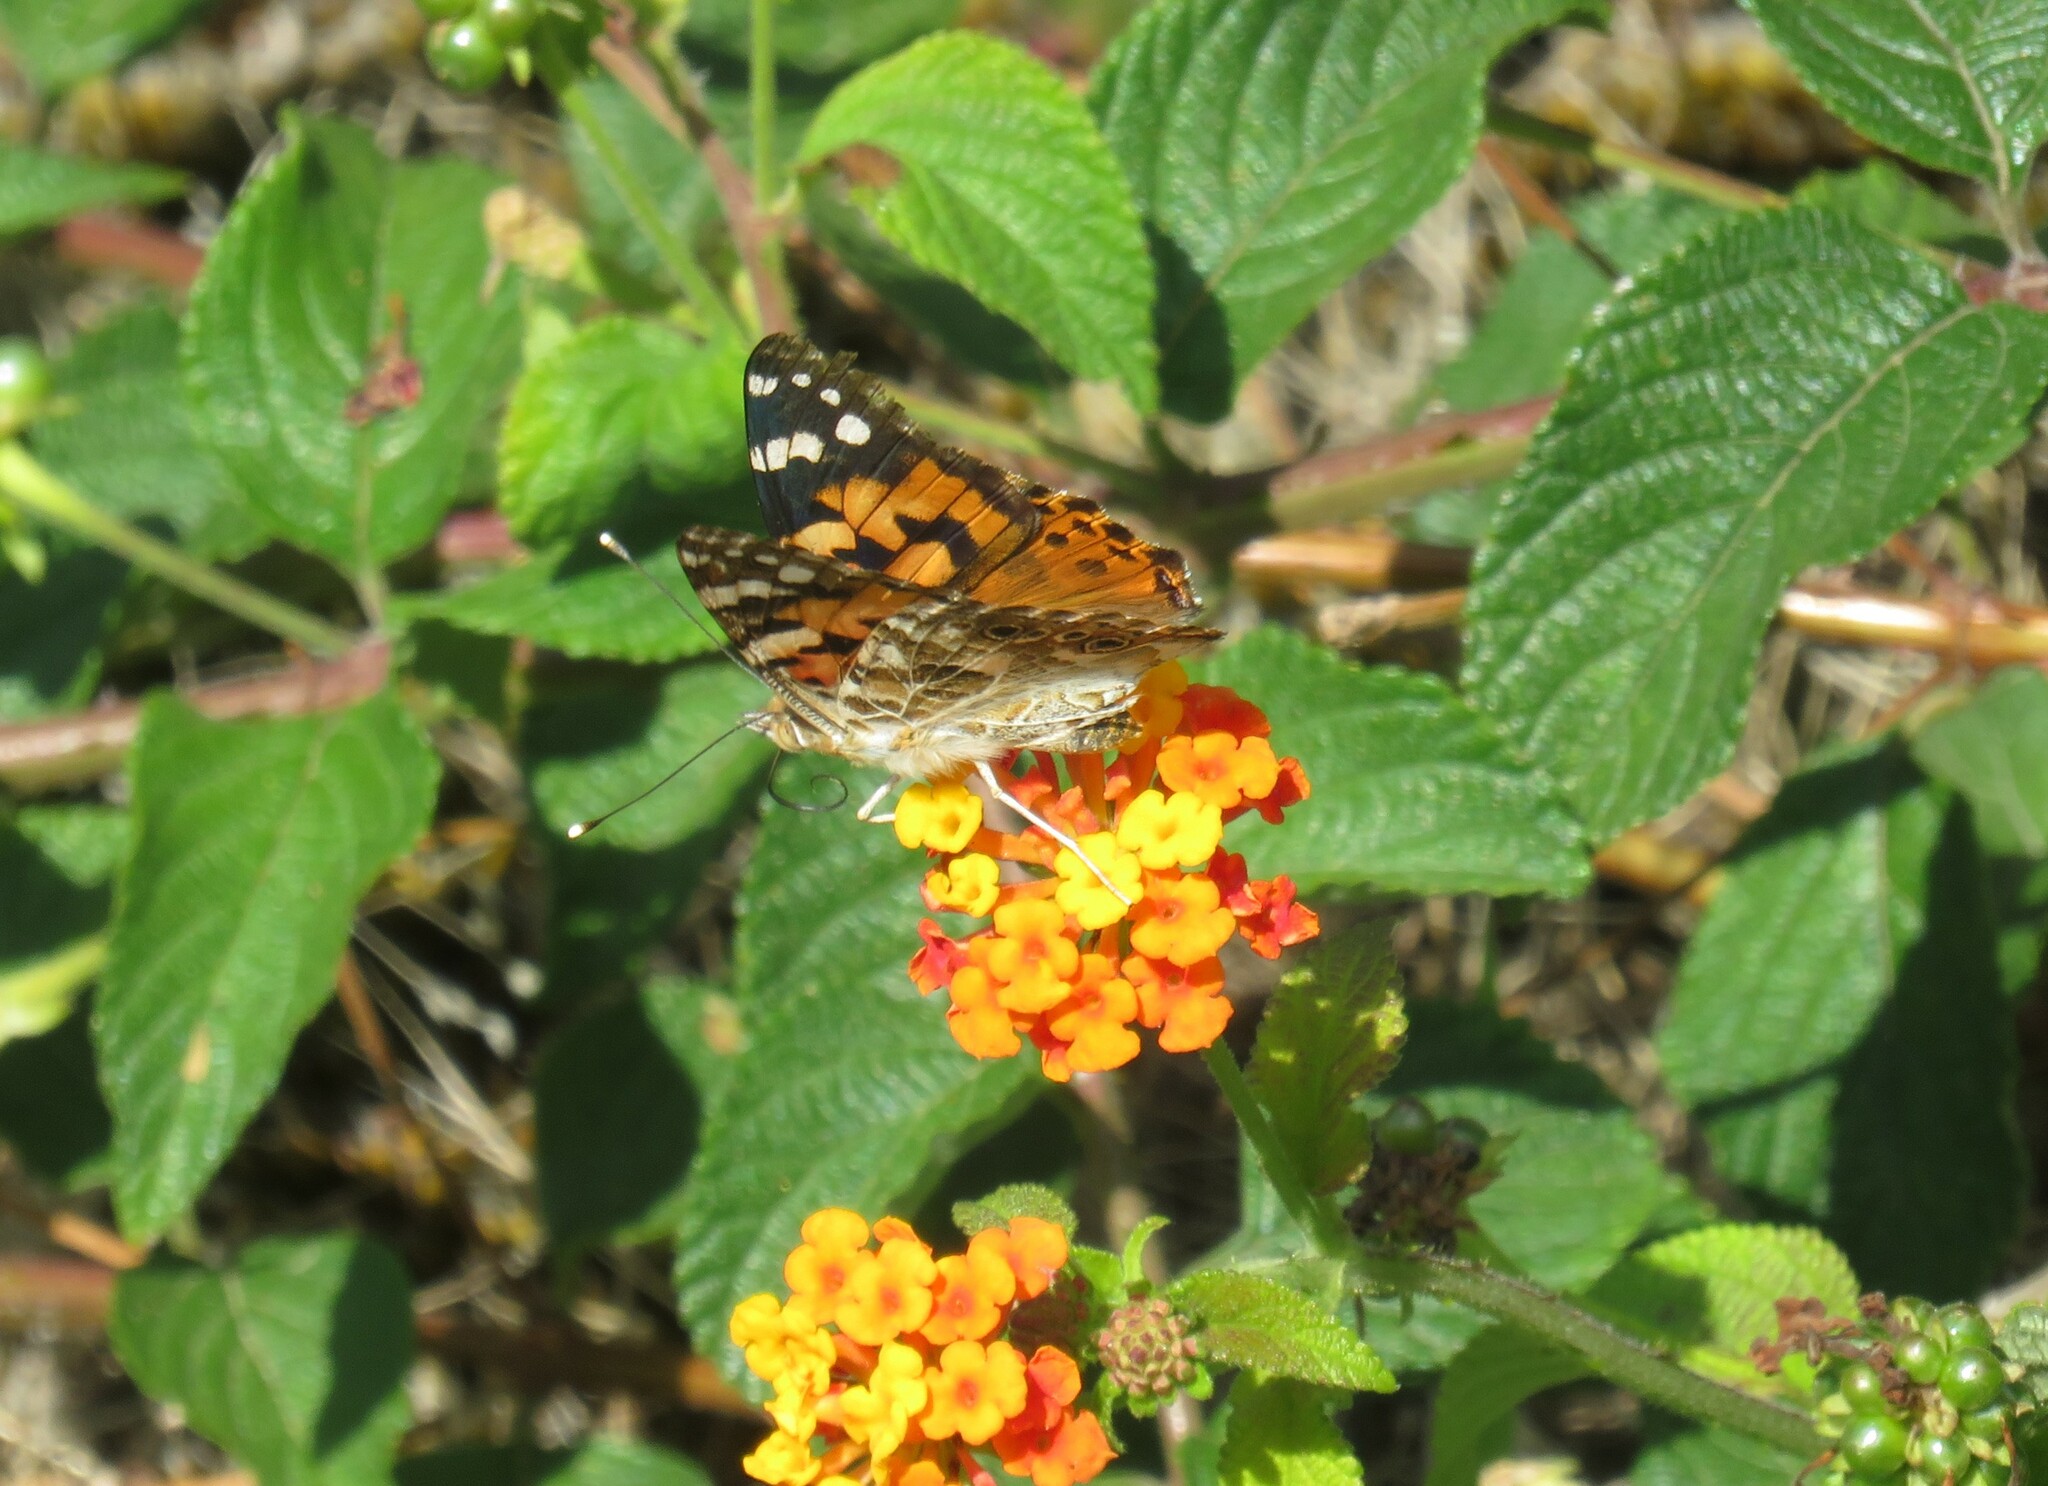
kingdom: Animalia
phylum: Arthropoda
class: Insecta
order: Lepidoptera
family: Nymphalidae
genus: Vanessa
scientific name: Vanessa cardui
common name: Painted lady
